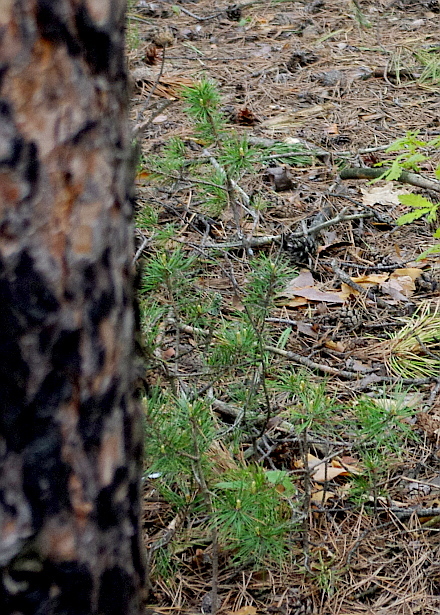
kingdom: Plantae
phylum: Tracheophyta
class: Pinopsida
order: Pinales
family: Pinaceae
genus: Pinus
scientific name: Pinus sylvestris
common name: Scots pine
